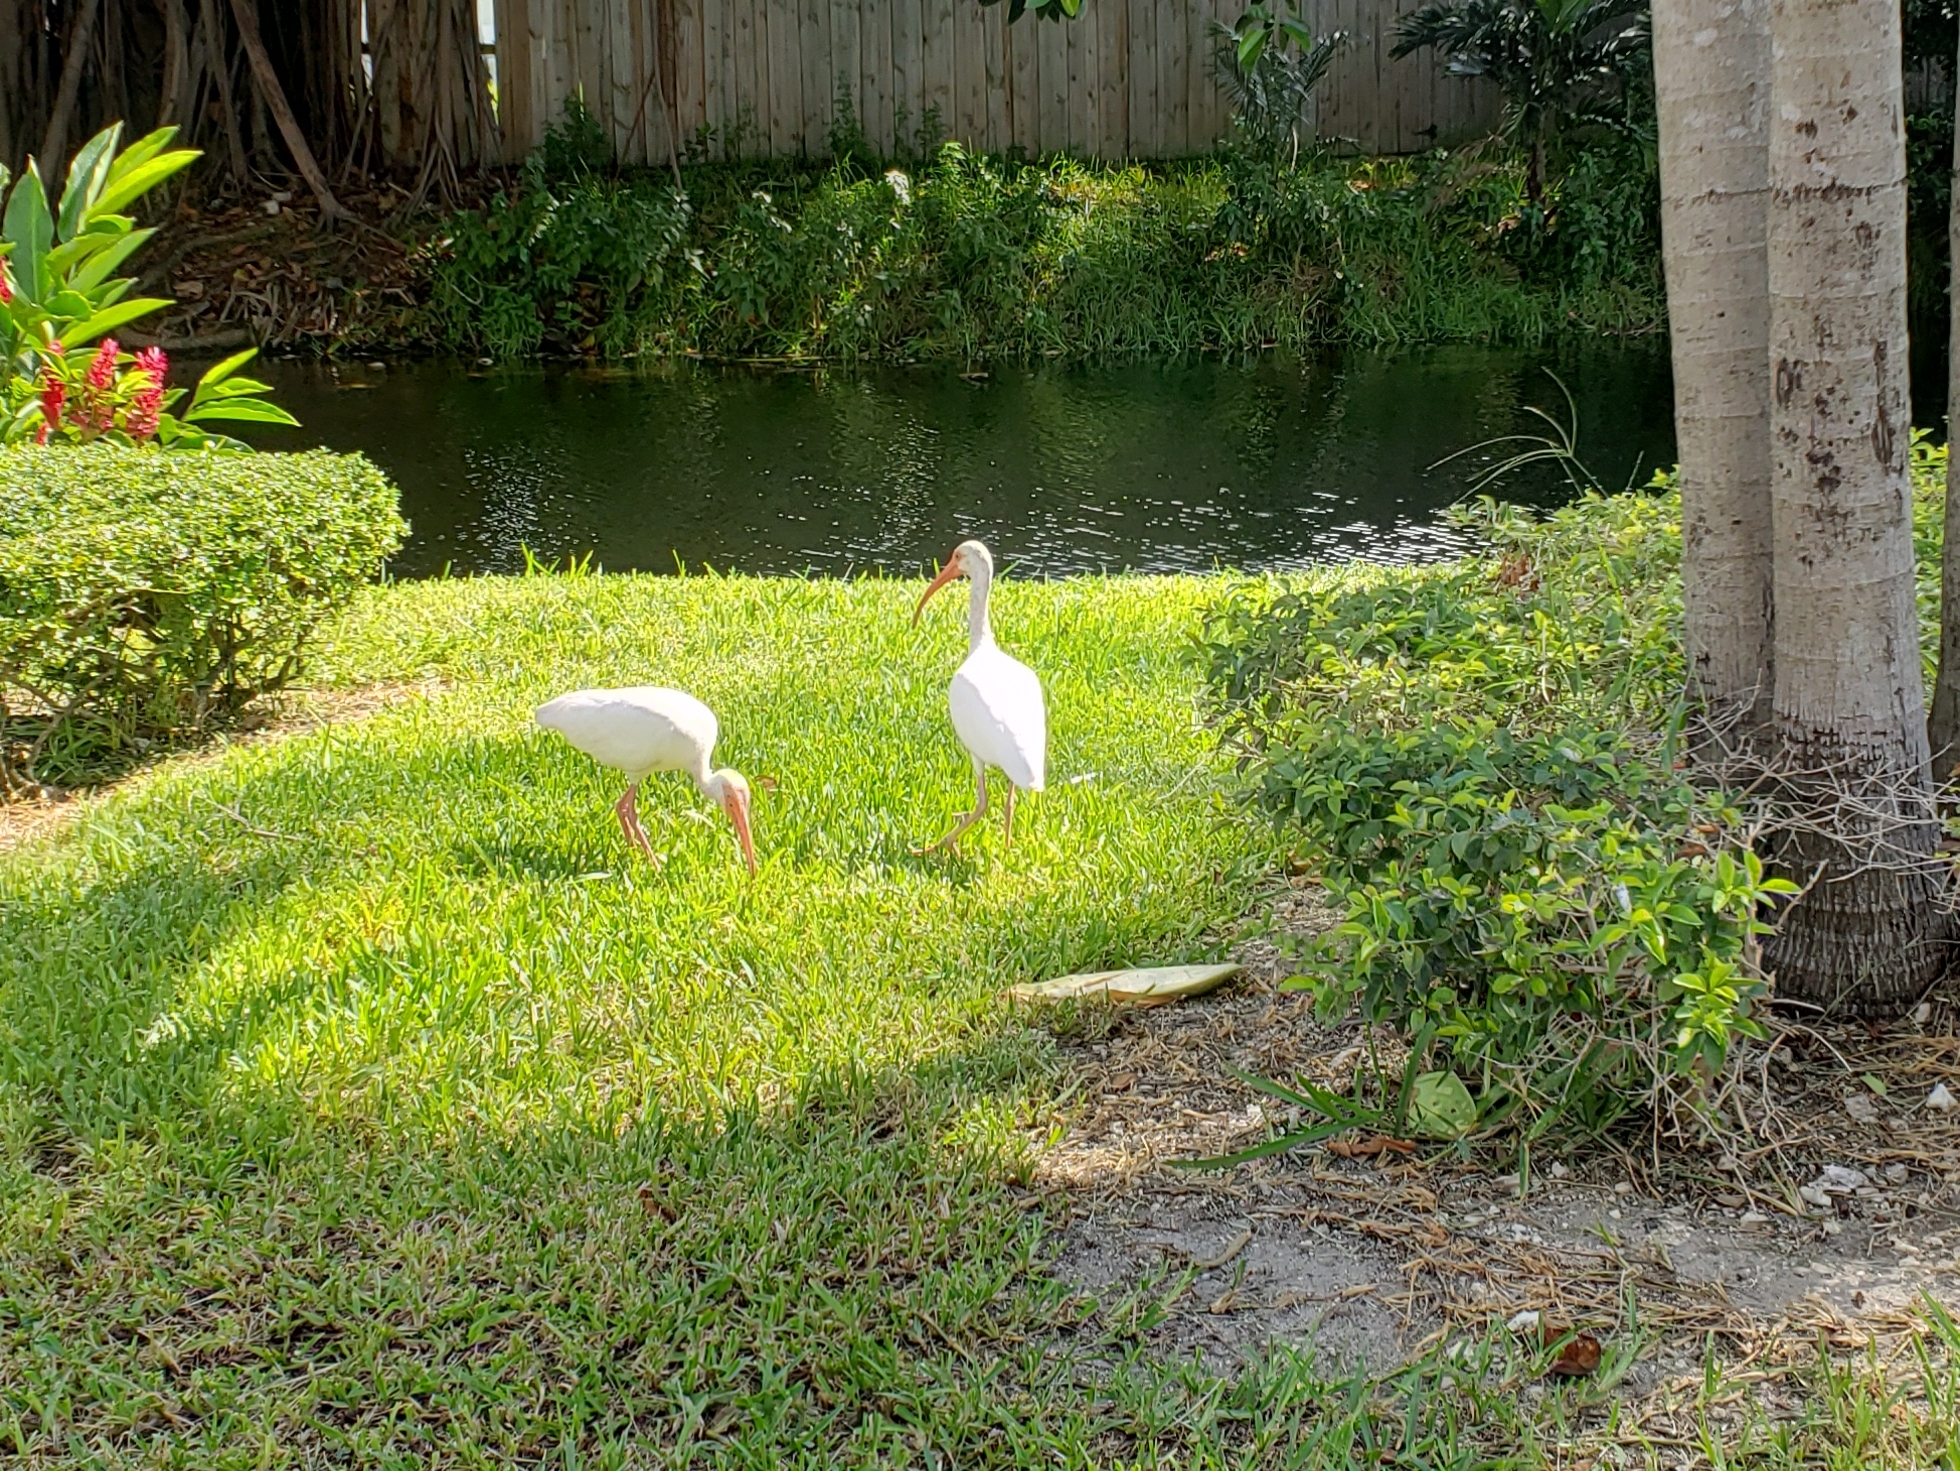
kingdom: Animalia
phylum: Chordata
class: Aves
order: Pelecaniformes
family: Threskiornithidae
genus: Eudocimus
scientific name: Eudocimus albus
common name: White ibis
